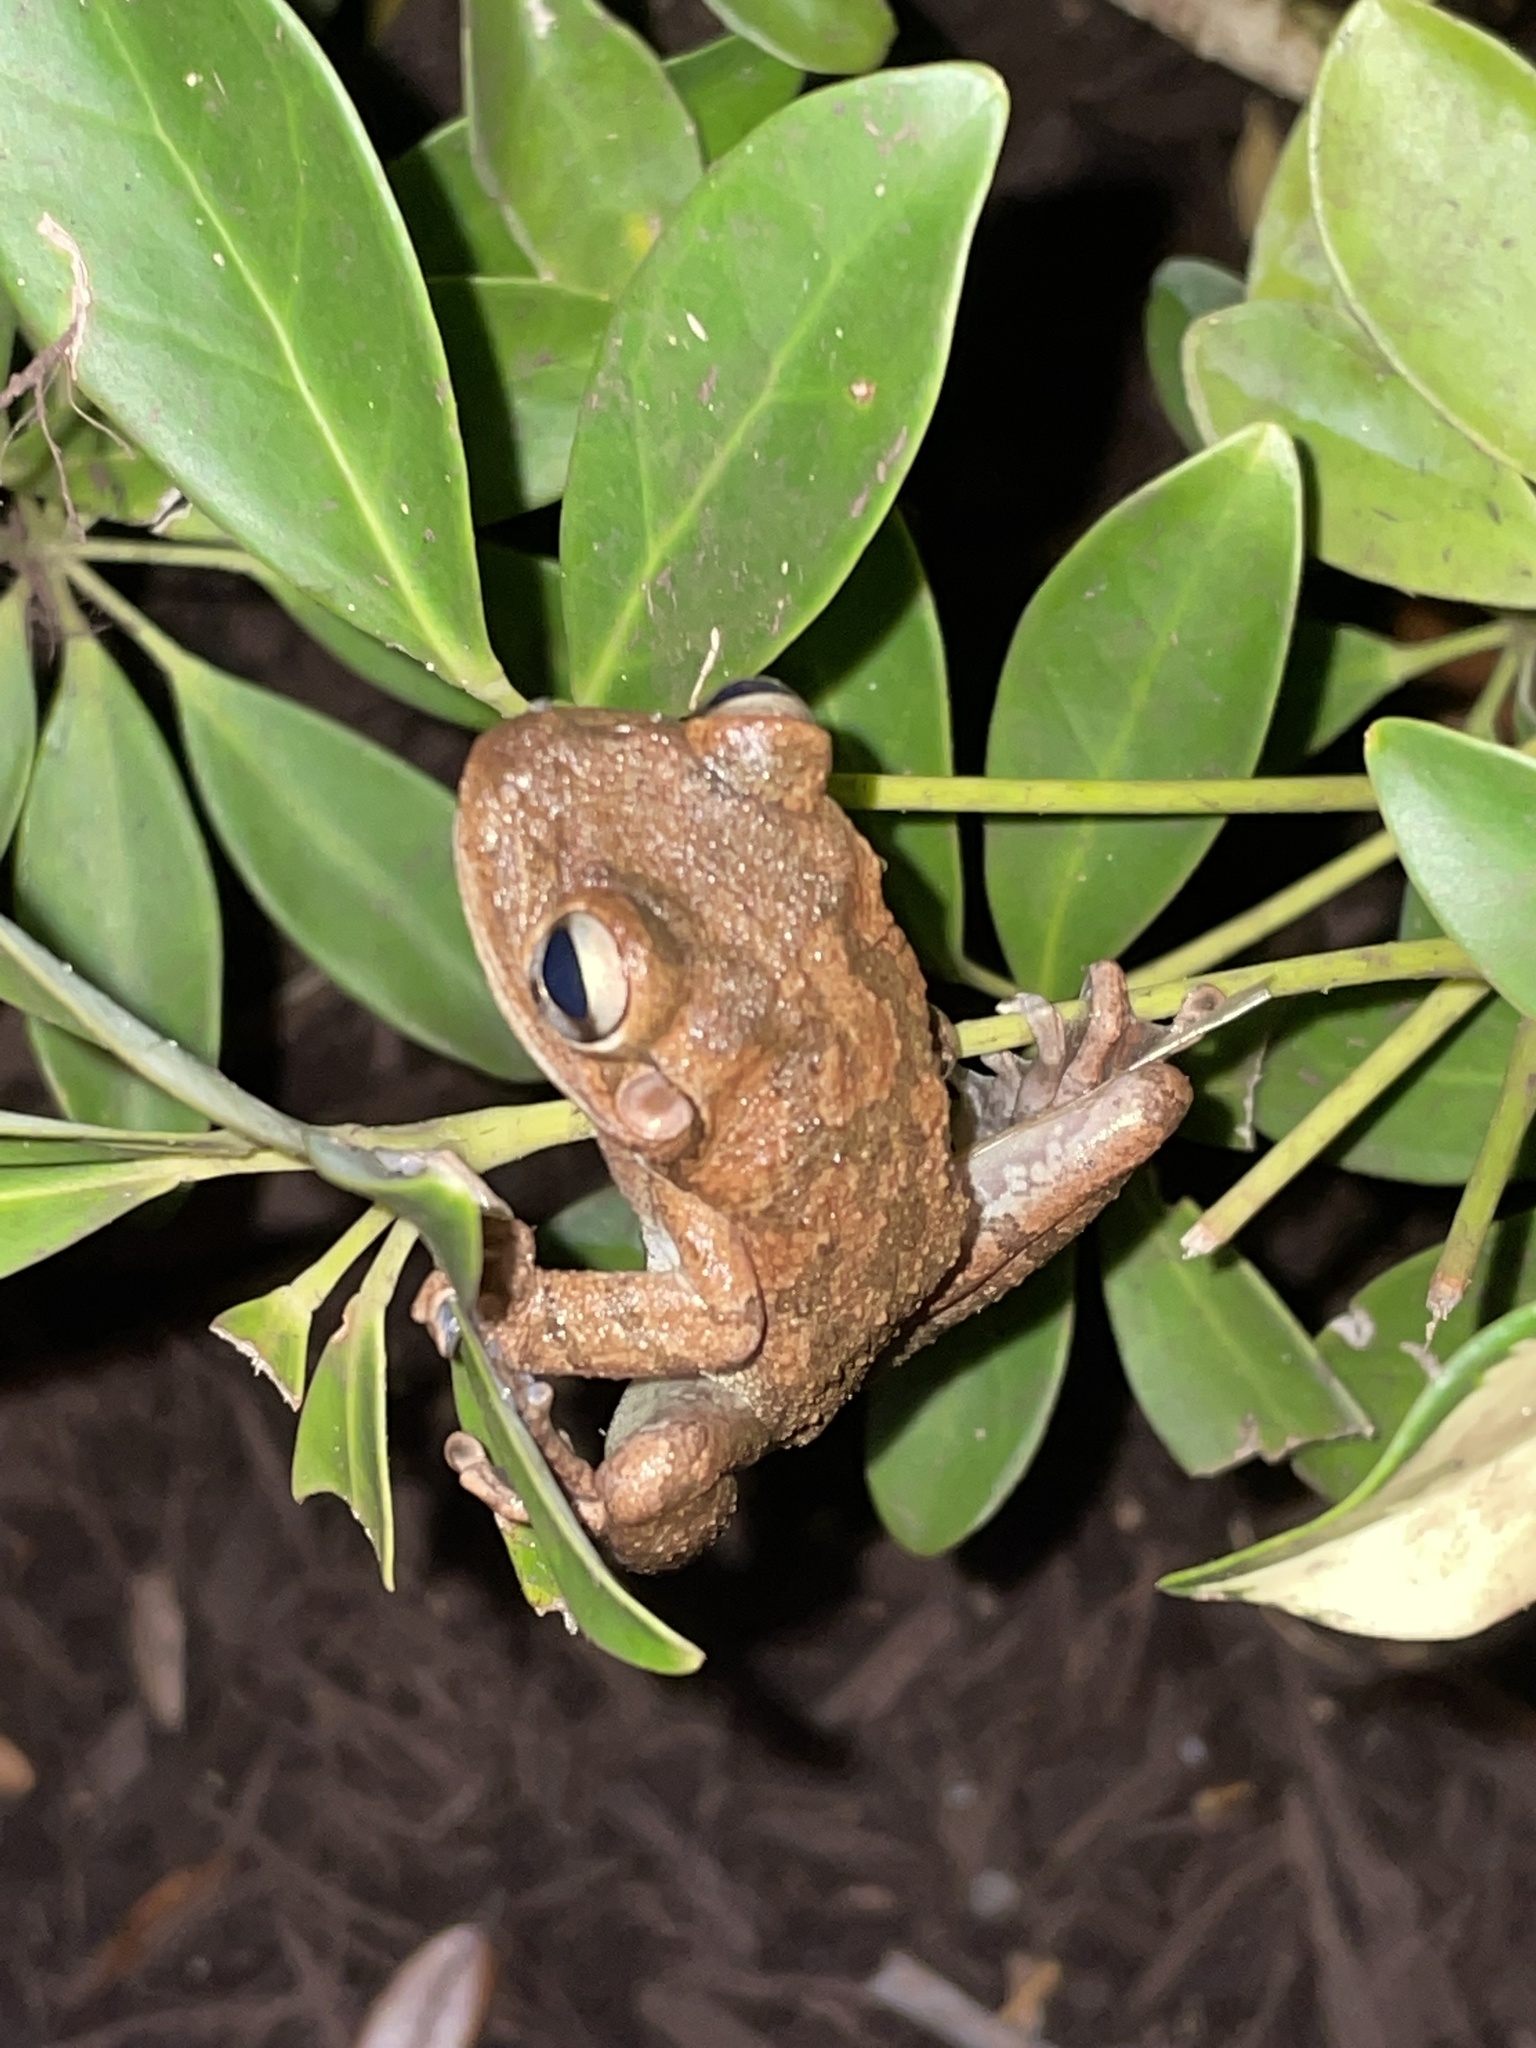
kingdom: Animalia
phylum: Chordata
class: Amphibia
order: Anura
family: Hylidae
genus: Osteopilus
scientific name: Osteopilus septentrionalis
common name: Cuban treefrog
